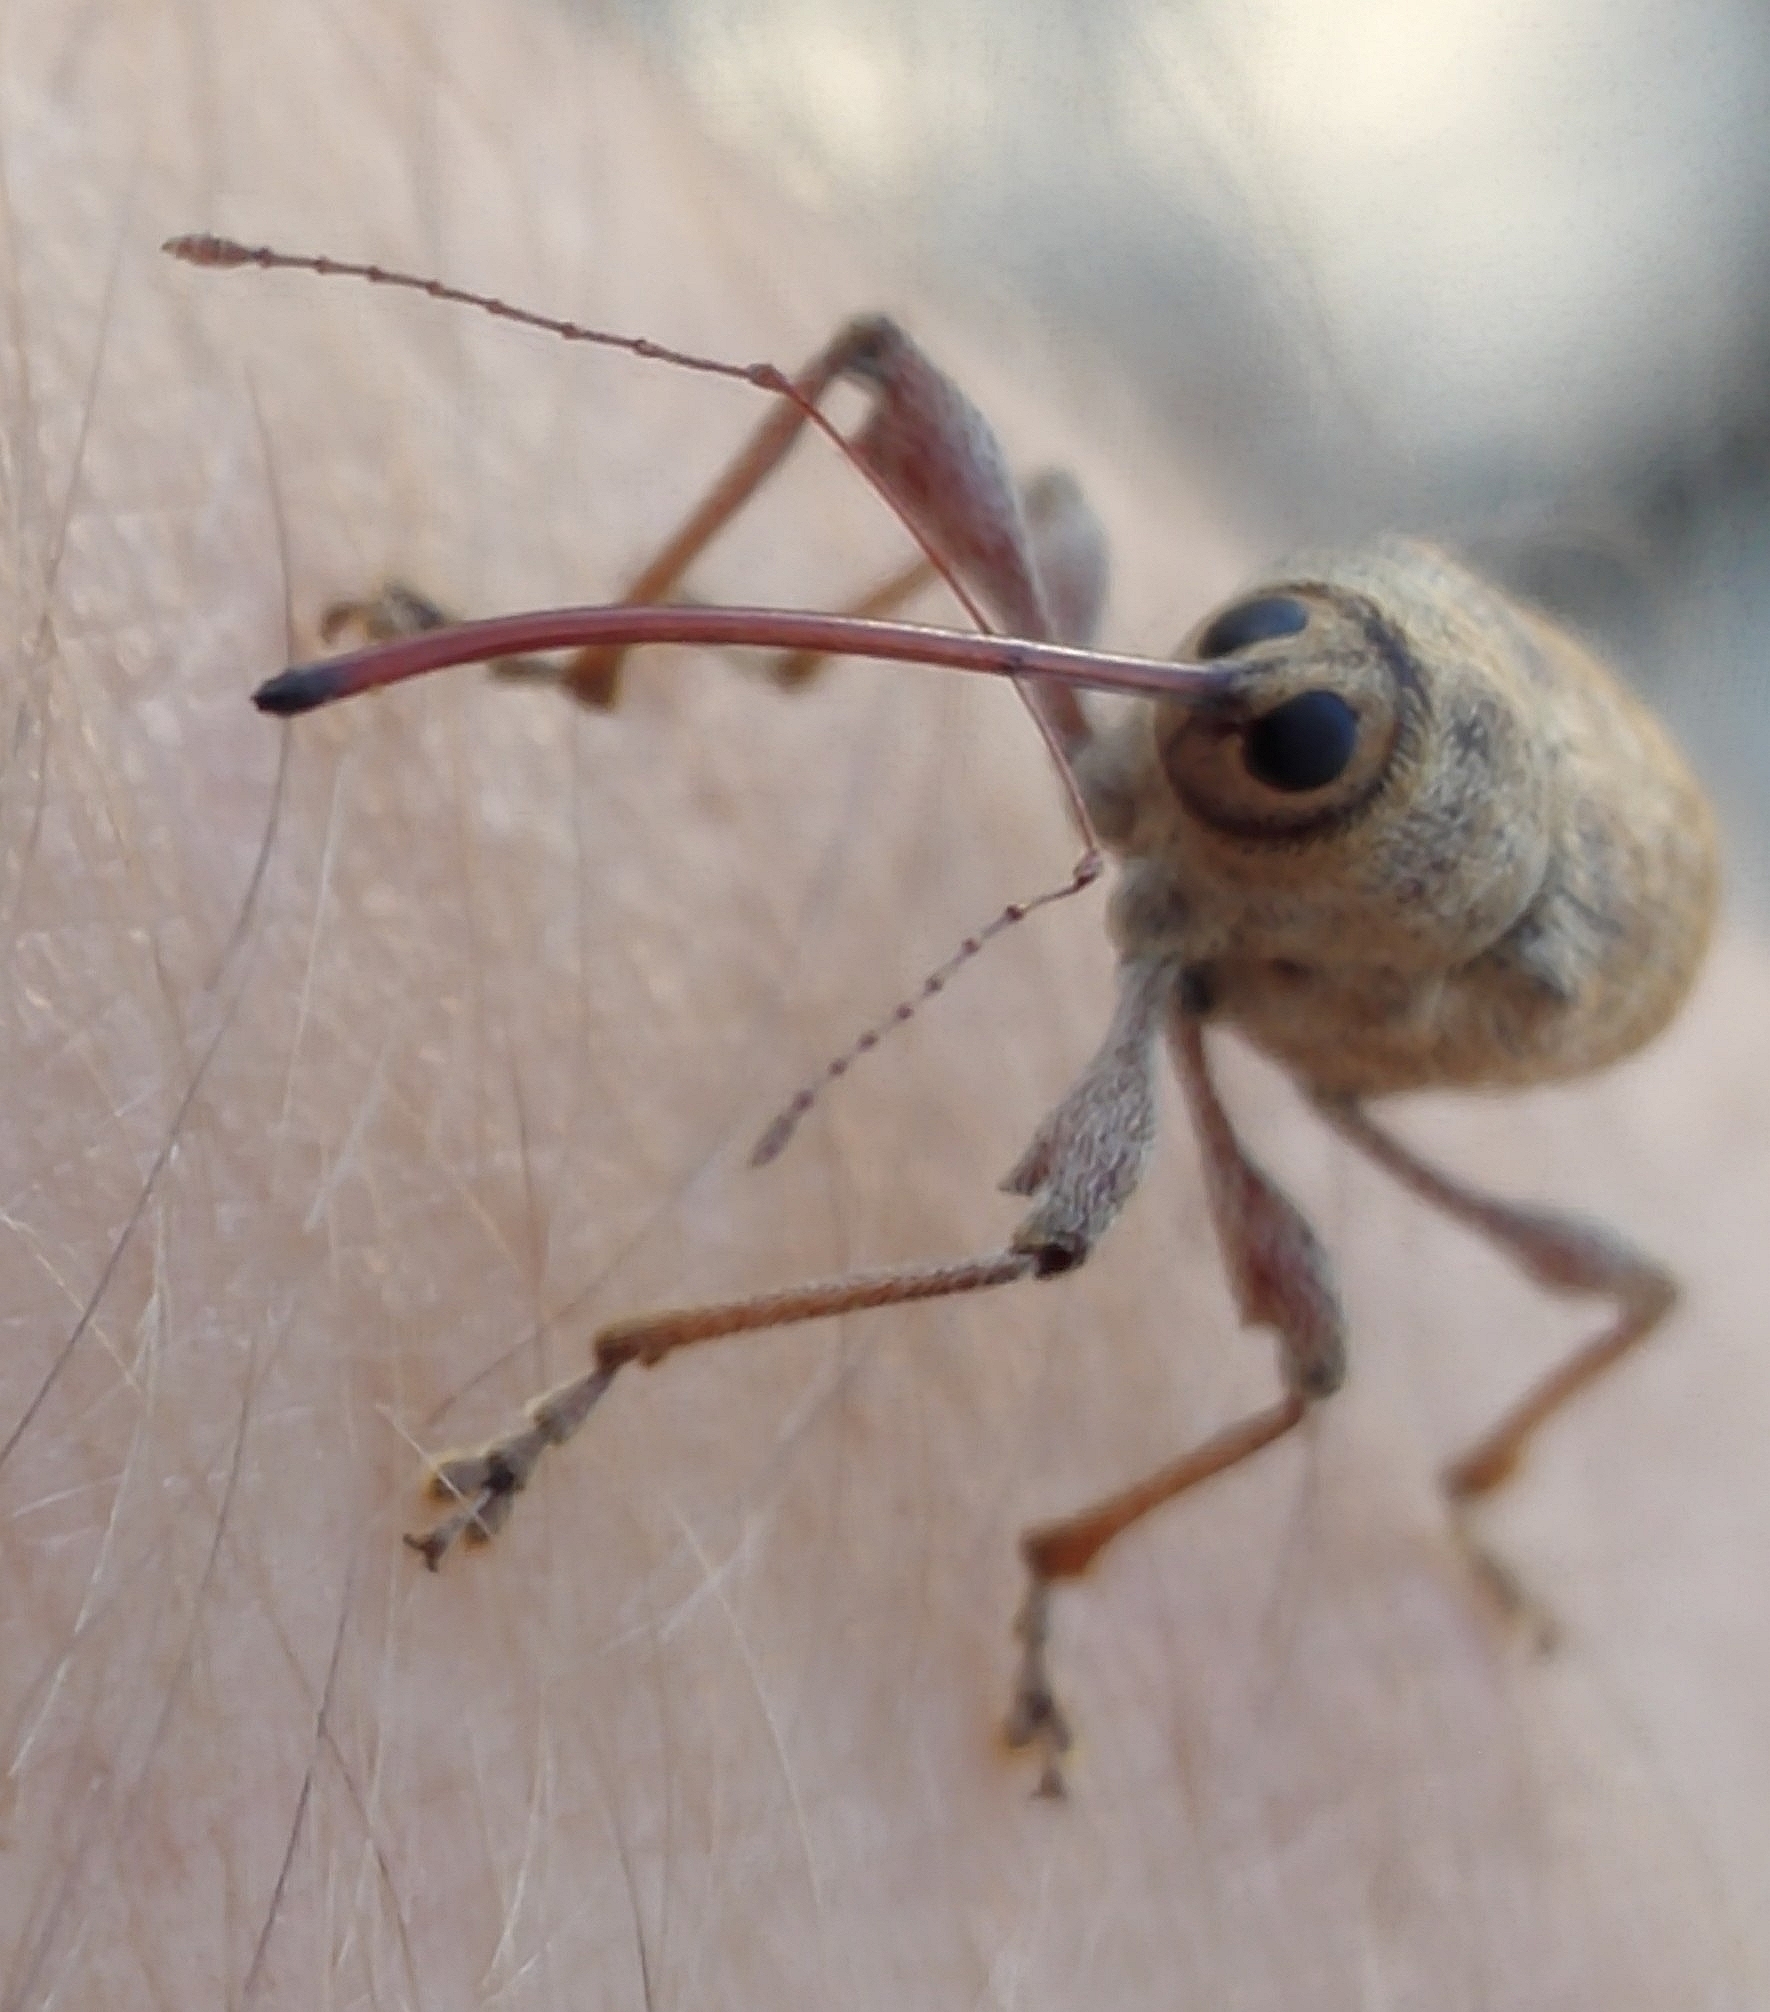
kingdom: Animalia
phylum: Arthropoda
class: Insecta
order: Coleoptera
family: Curculionidae
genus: Curculio
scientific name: Curculio elephas
